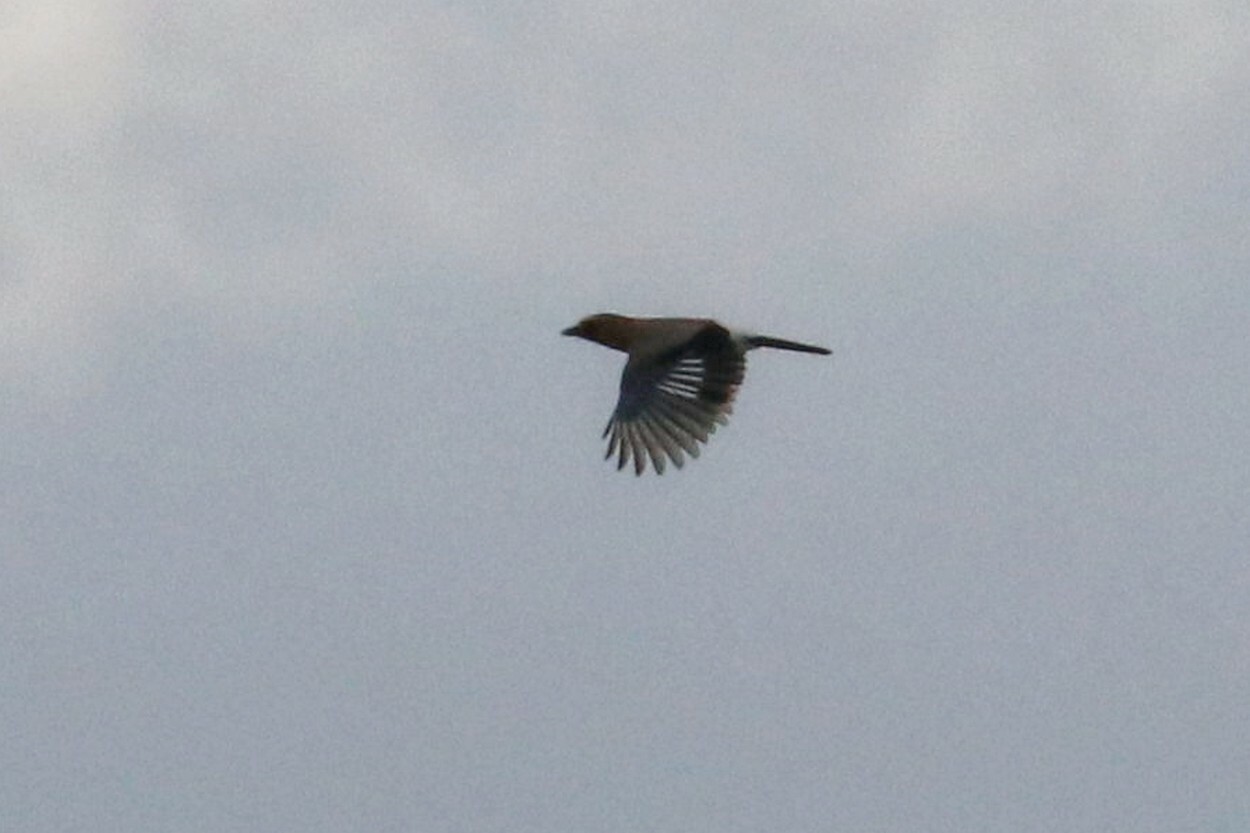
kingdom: Animalia
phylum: Chordata
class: Aves
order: Passeriformes
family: Corvidae
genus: Garrulus
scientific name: Garrulus glandarius
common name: Eurasian jay
